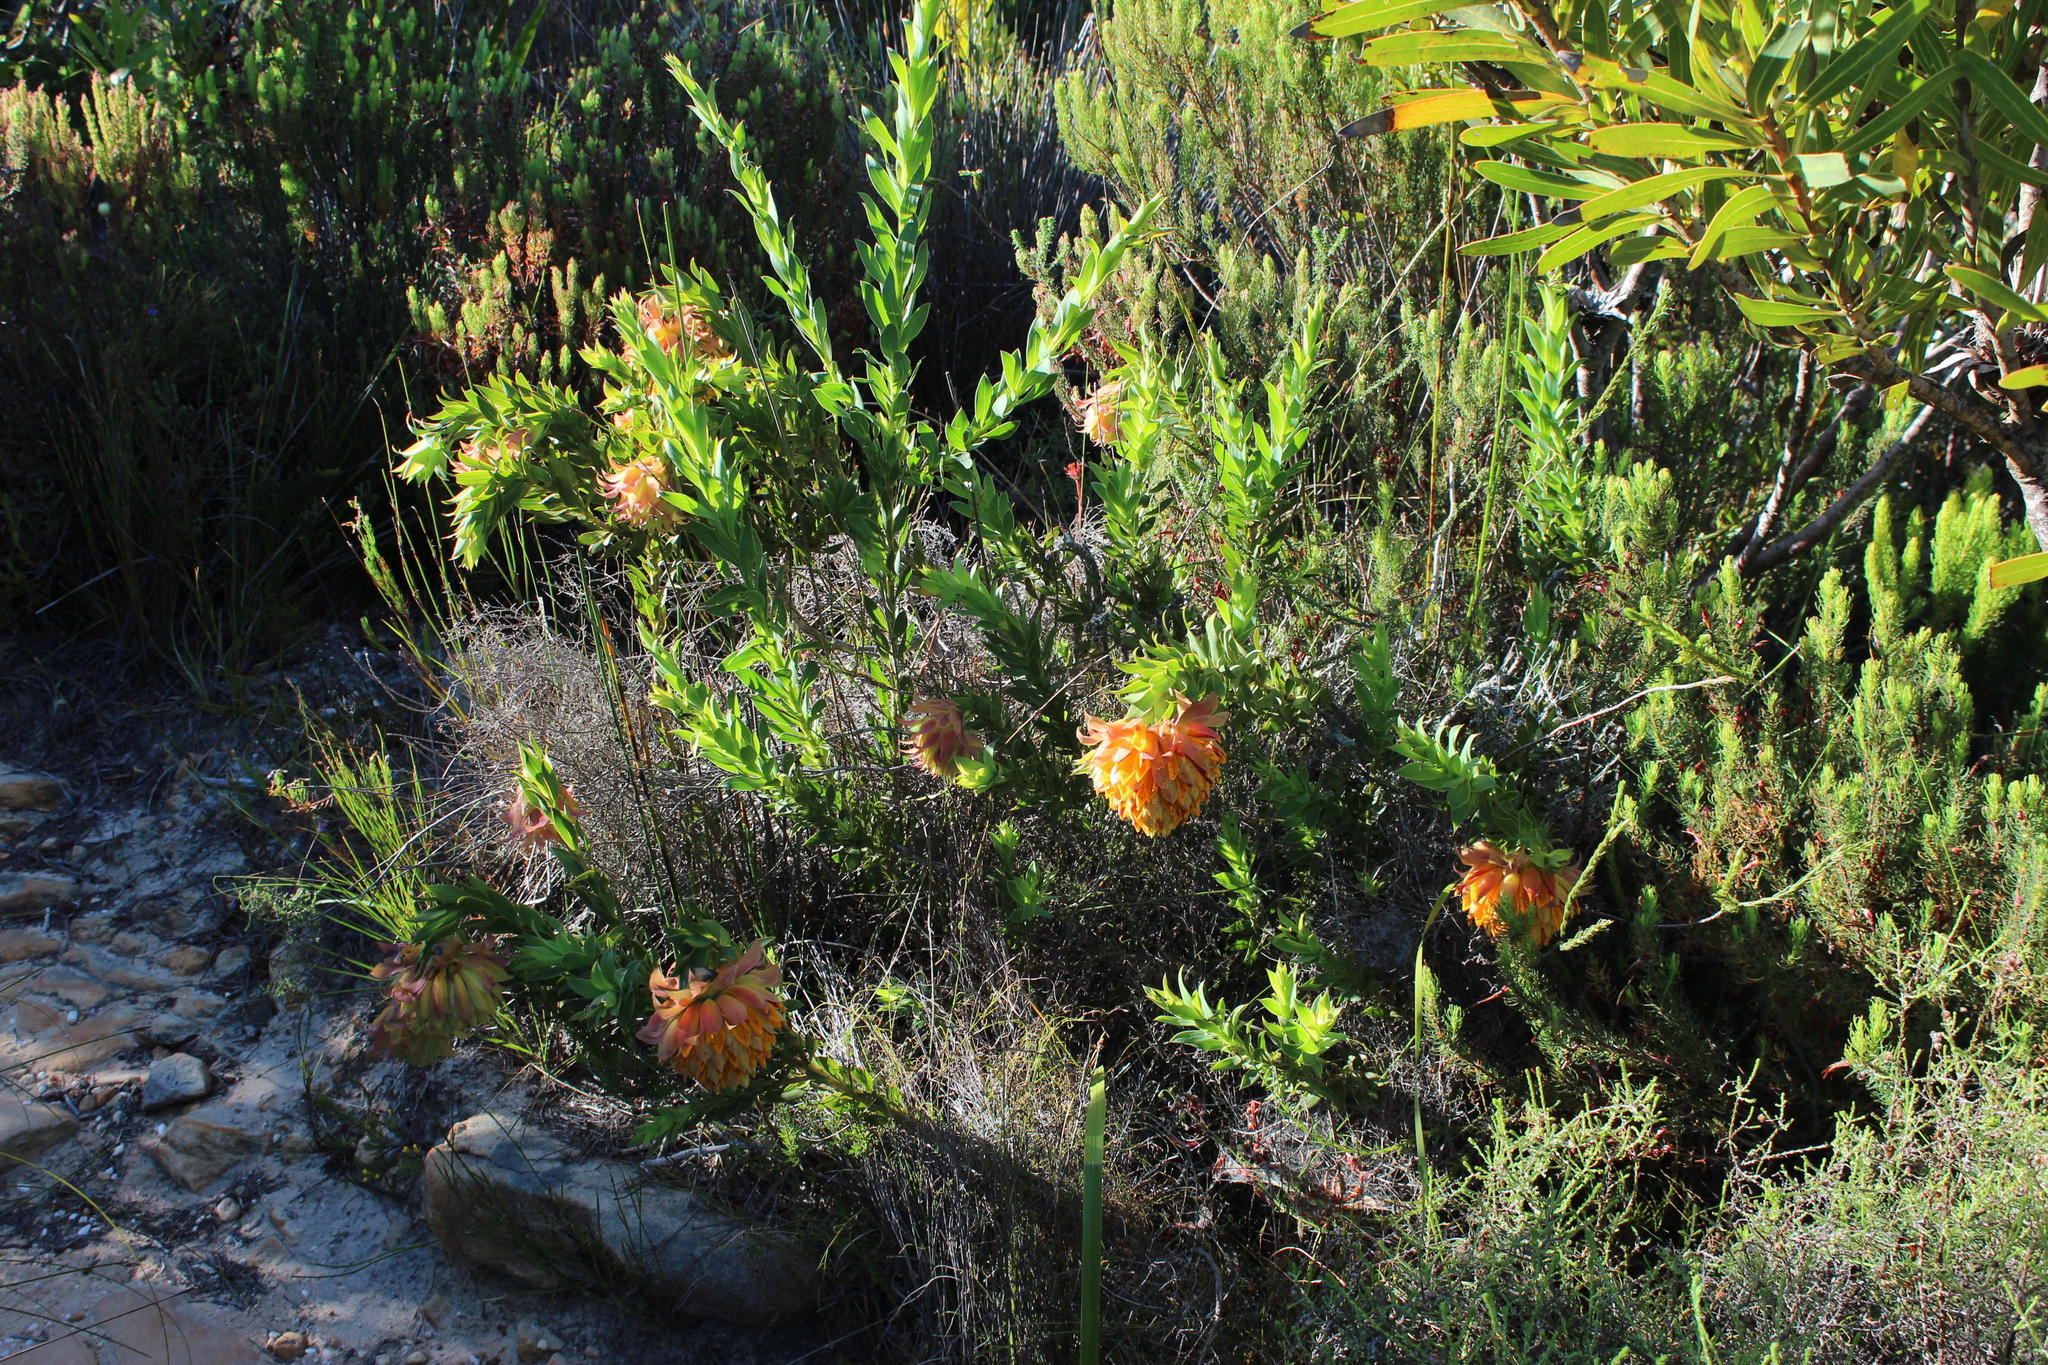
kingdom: Plantae
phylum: Tracheophyta
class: Magnoliopsida
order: Fabales
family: Fabaceae
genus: Liparia
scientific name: Liparia splendens
